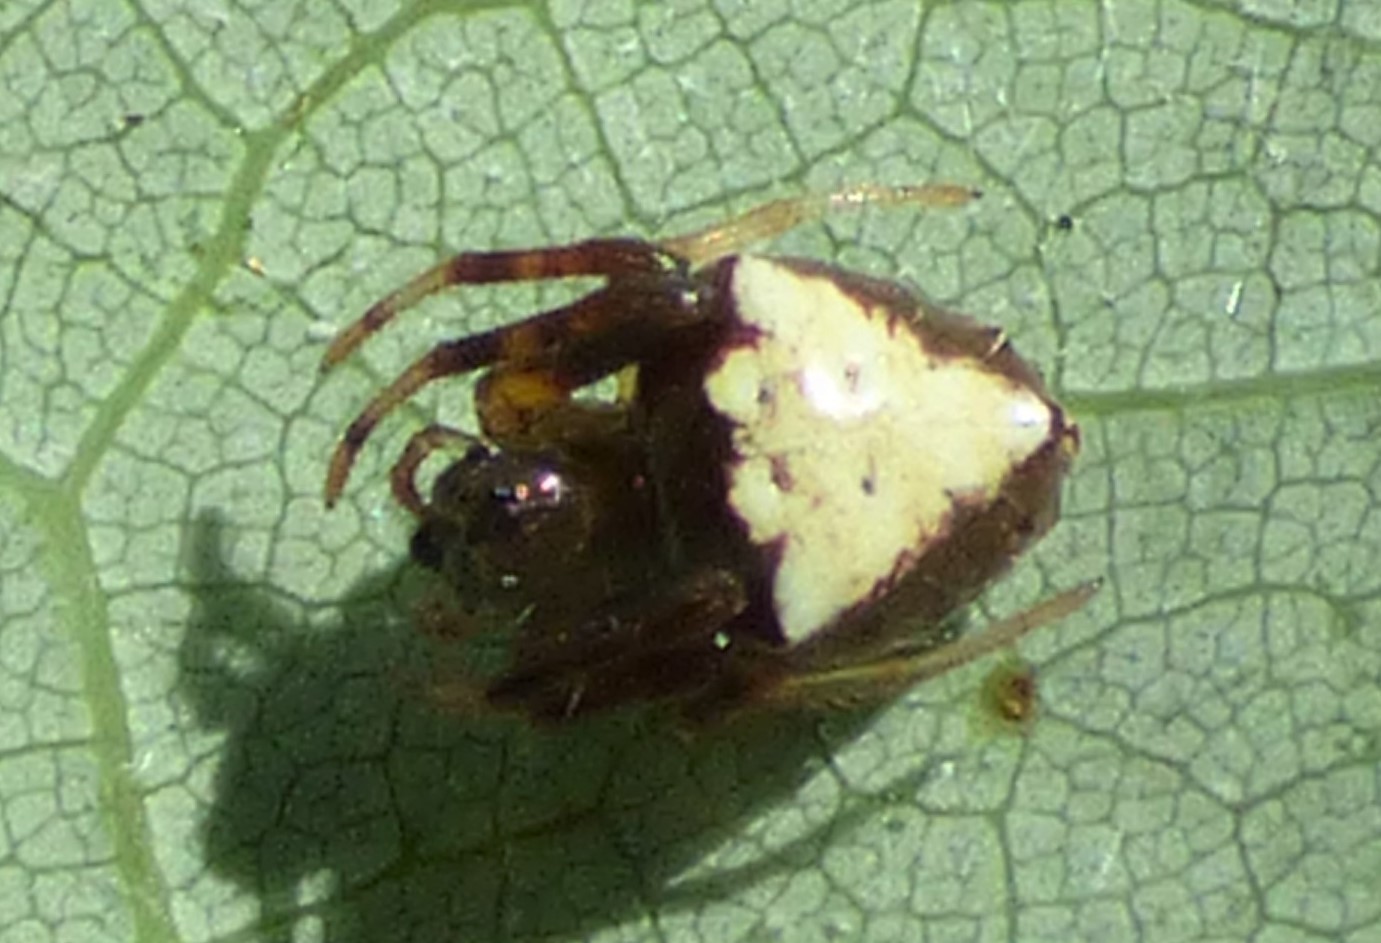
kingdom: Animalia
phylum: Arthropoda
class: Arachnida
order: Araneae
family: Araneidae
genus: Verrucosa
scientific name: Verrucosa arenata
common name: Orb weavers
